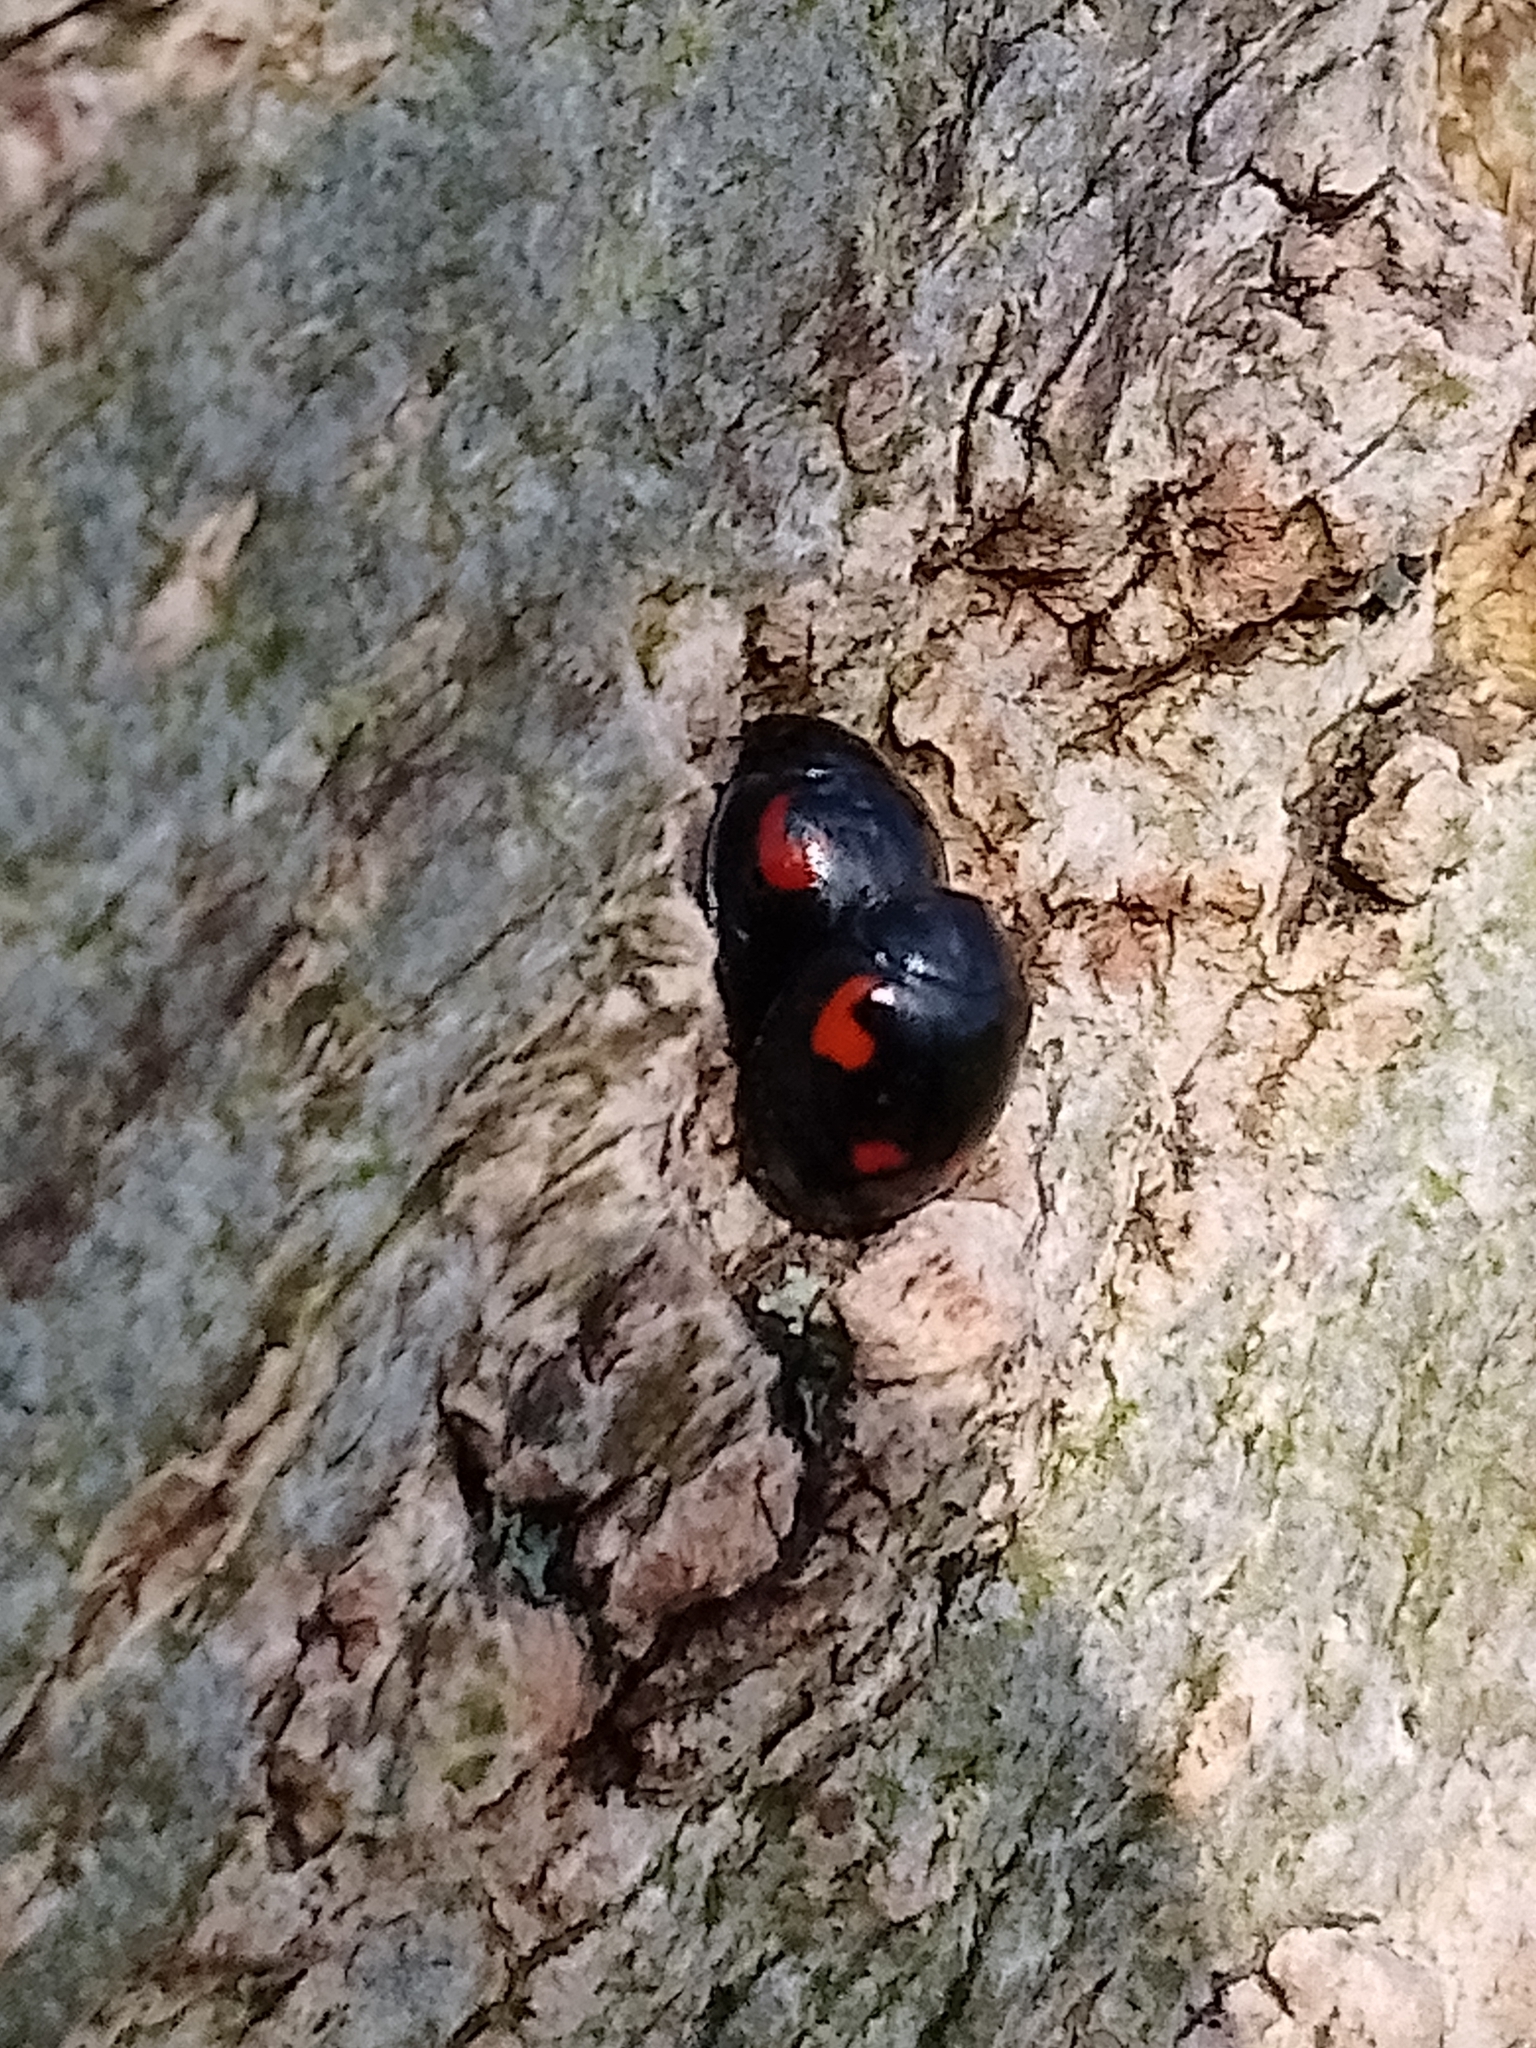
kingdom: Animalia
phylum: Arthropoda
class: Insecta
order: Coleoptera
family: Coccinellidae
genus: Brumus
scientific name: Brumus quadripustulatus
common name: Ladybird beetle
